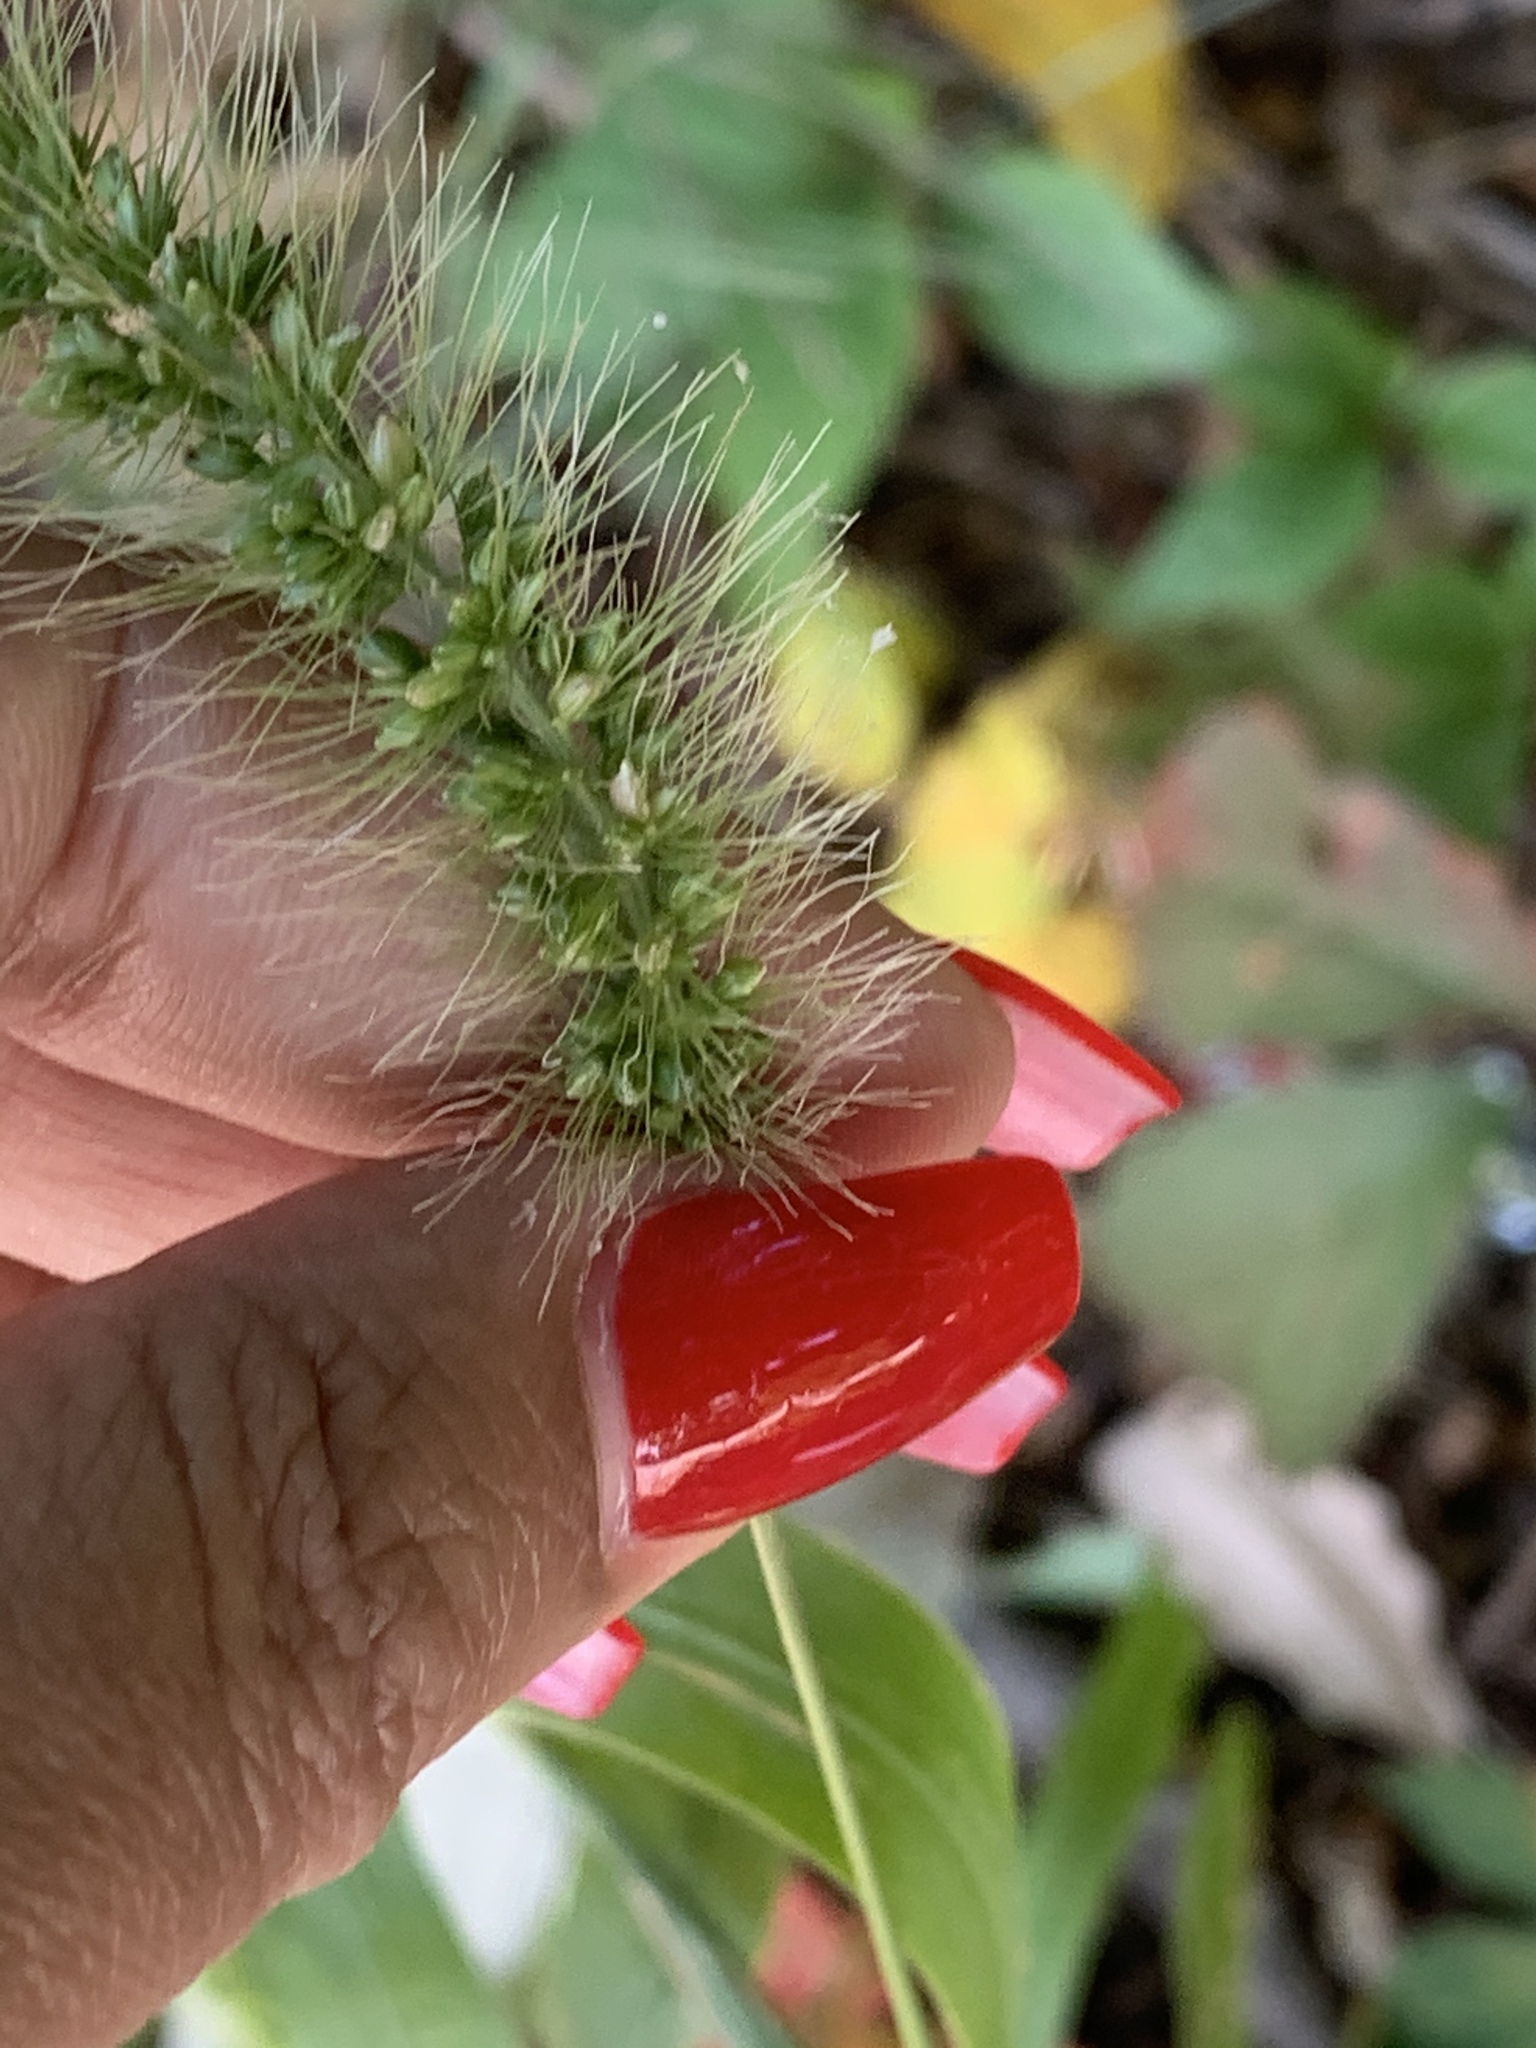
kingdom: Plantae
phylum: Tracheophyta
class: Liliopsida
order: Poales
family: Poaceae
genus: Setaria
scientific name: Setaria viridis
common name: Green bristlegrass
